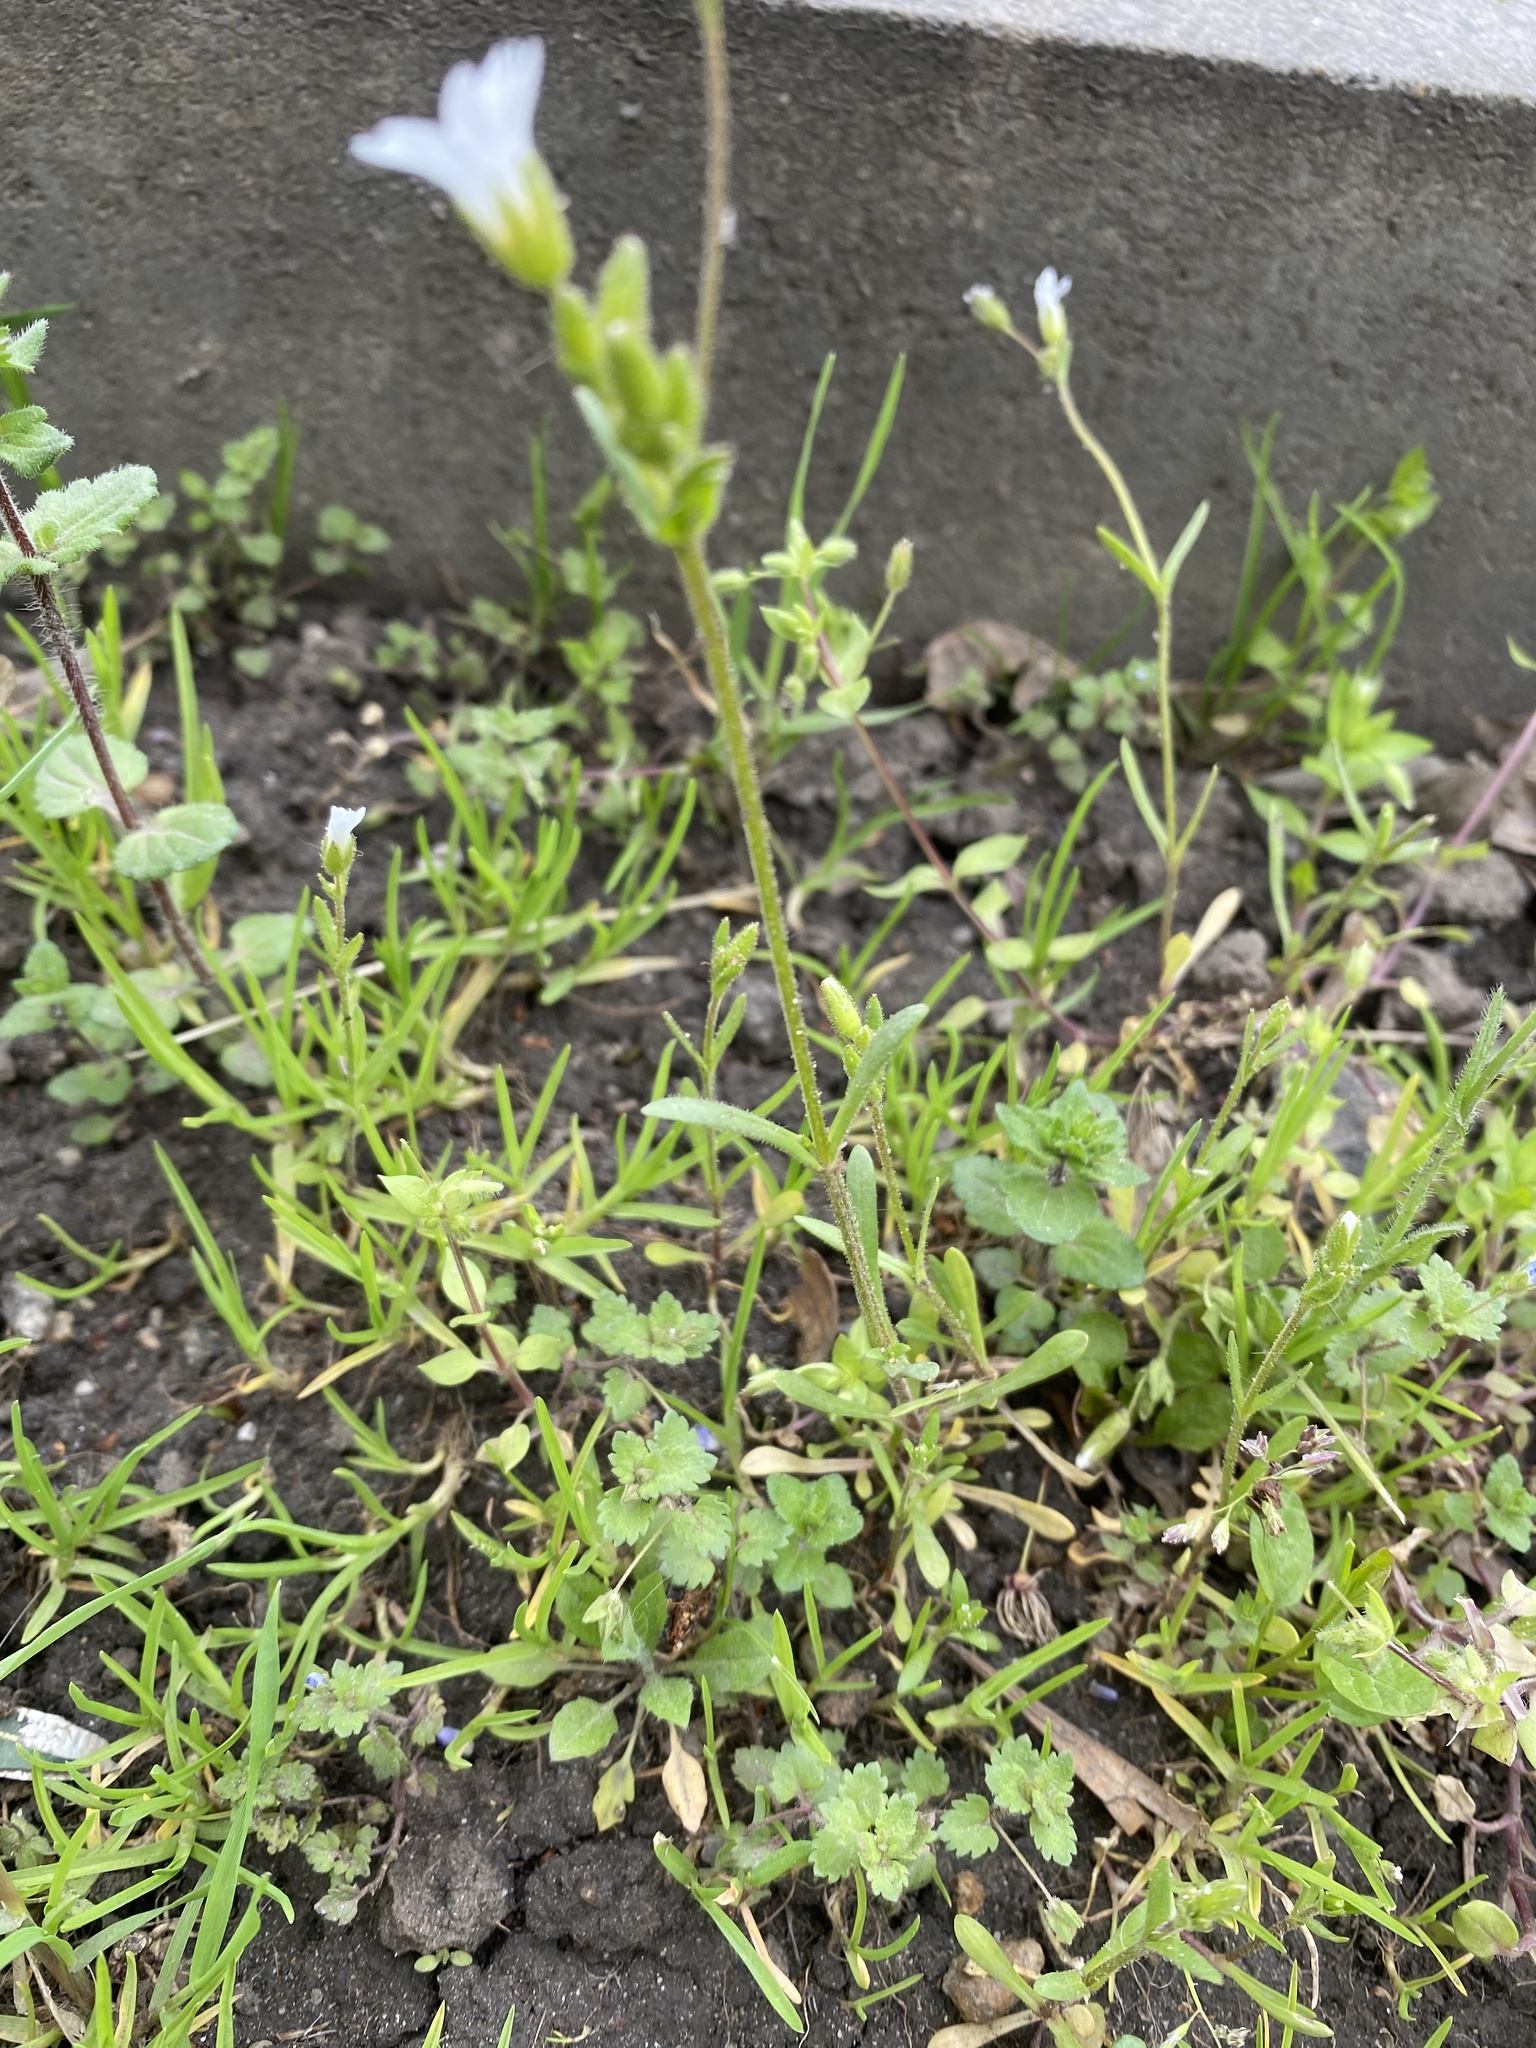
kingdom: Plantae
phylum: Tracheophyta
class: Magnoliopsida
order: Caryophyllales
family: Caryophyllaceae
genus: Dichodon
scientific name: Dichodon viscidum
